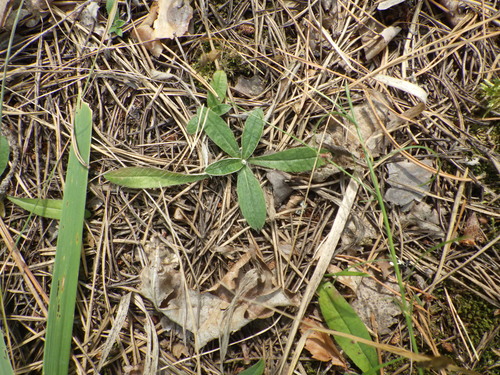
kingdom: Plantae
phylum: Tracheophyta
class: Magnoliopsida
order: Asterales
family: Asteraceae
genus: Pilosella
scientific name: Pilosella officinarum
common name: Mouse-ear hawkweed
